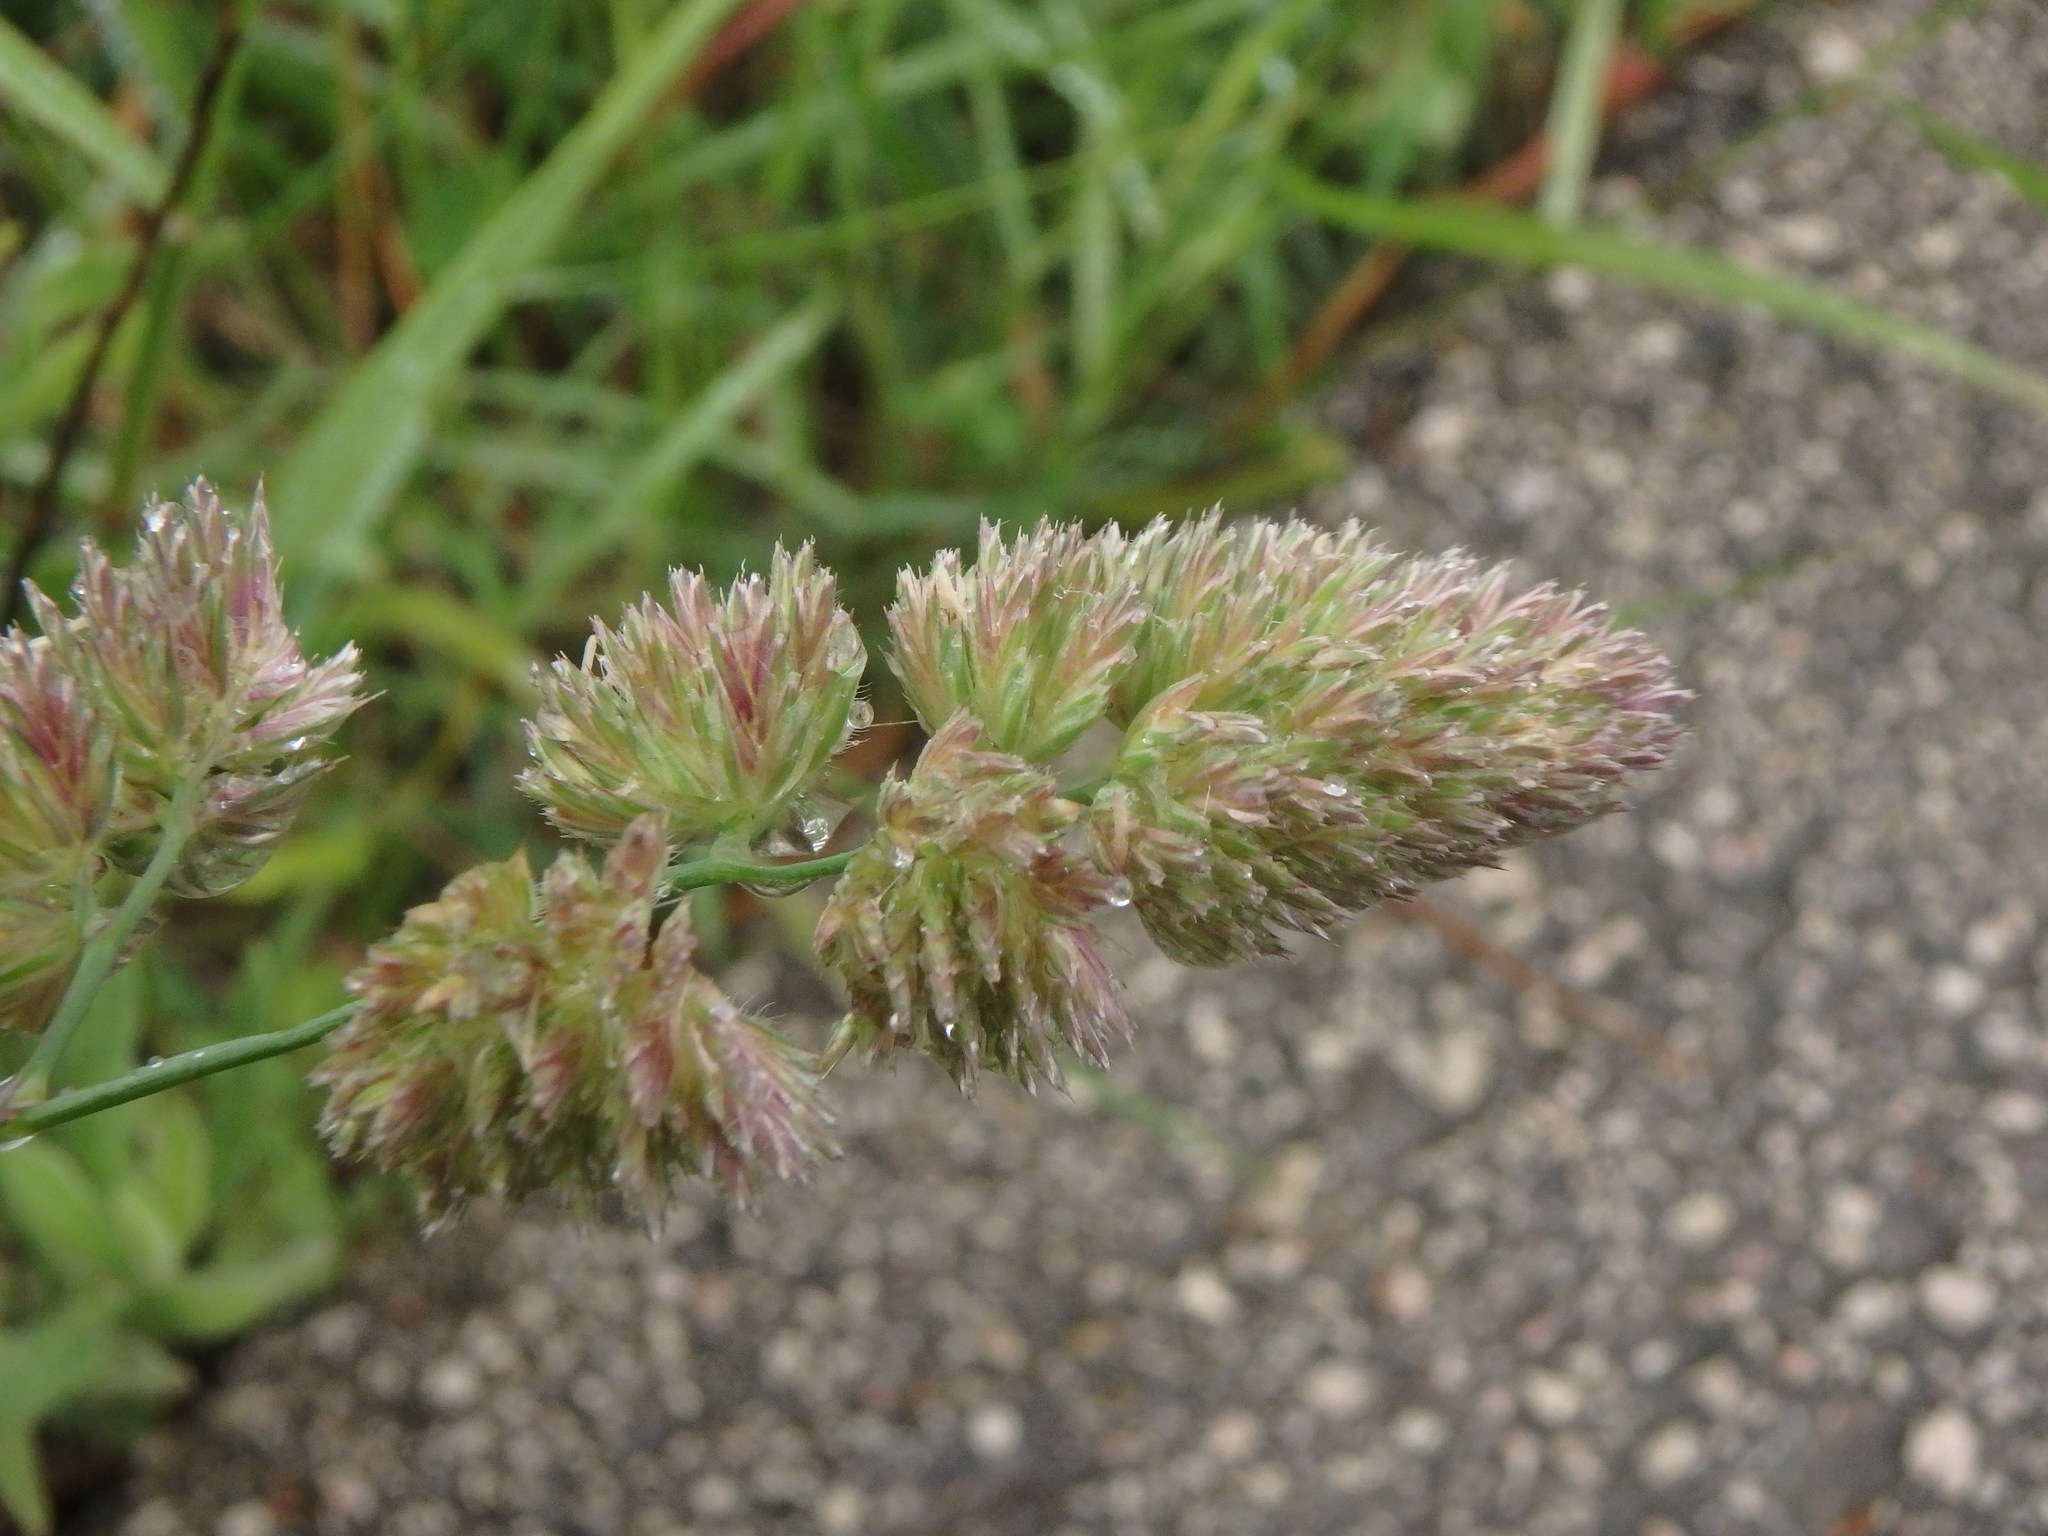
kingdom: Plantae
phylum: Tracheophyta
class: Liliopsida
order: Poales
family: Poaceae
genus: Dactylis
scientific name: Dactylis glomerata
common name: Orchardgrass
